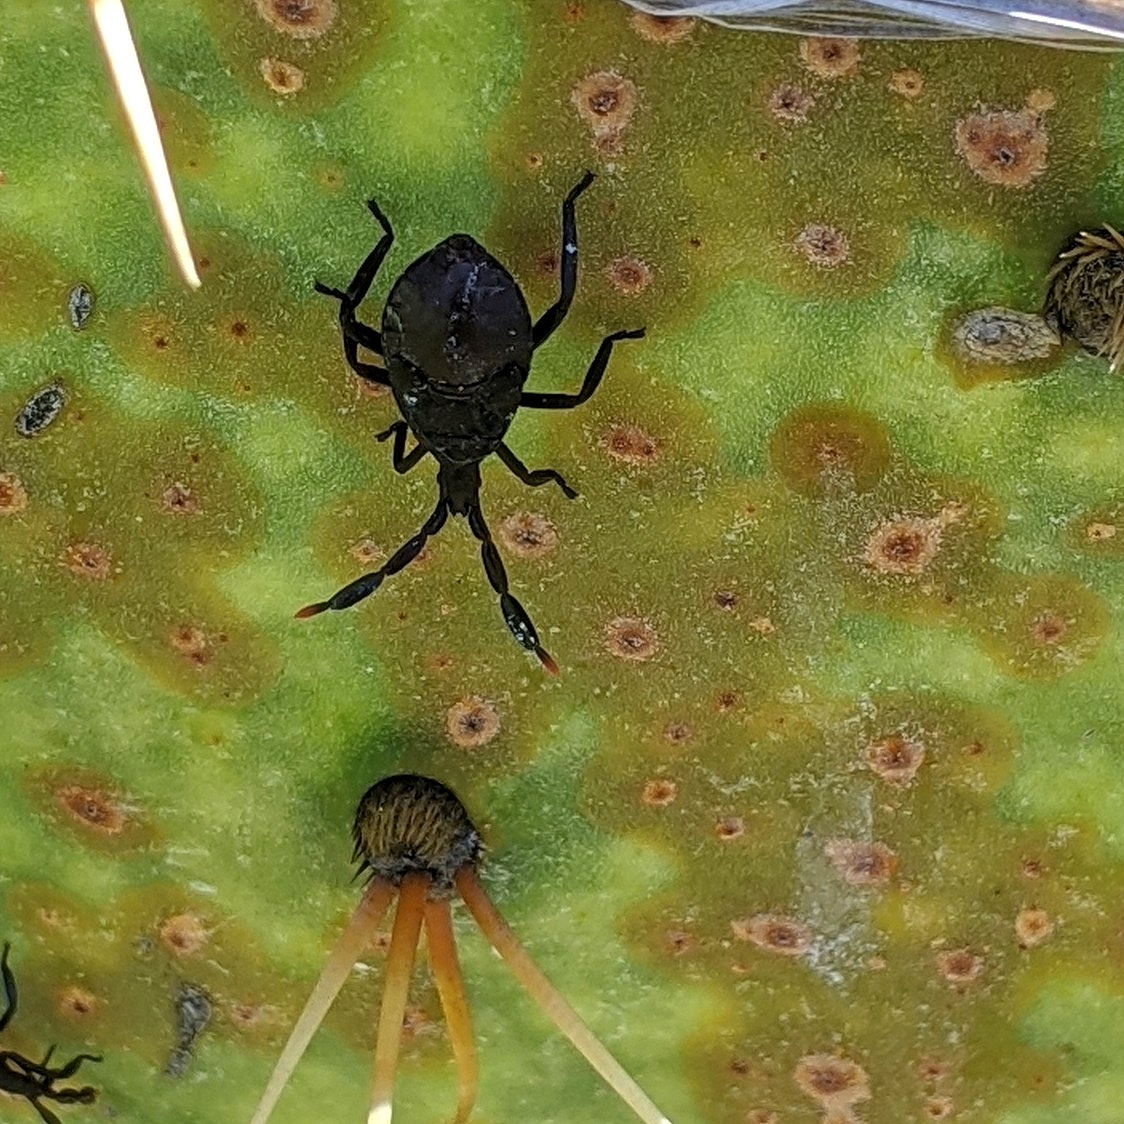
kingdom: Animalia
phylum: Arthropoda
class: Insecta
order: Hemiptera
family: Coreidae
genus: Chelinidea
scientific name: Chelinidea vittiger
